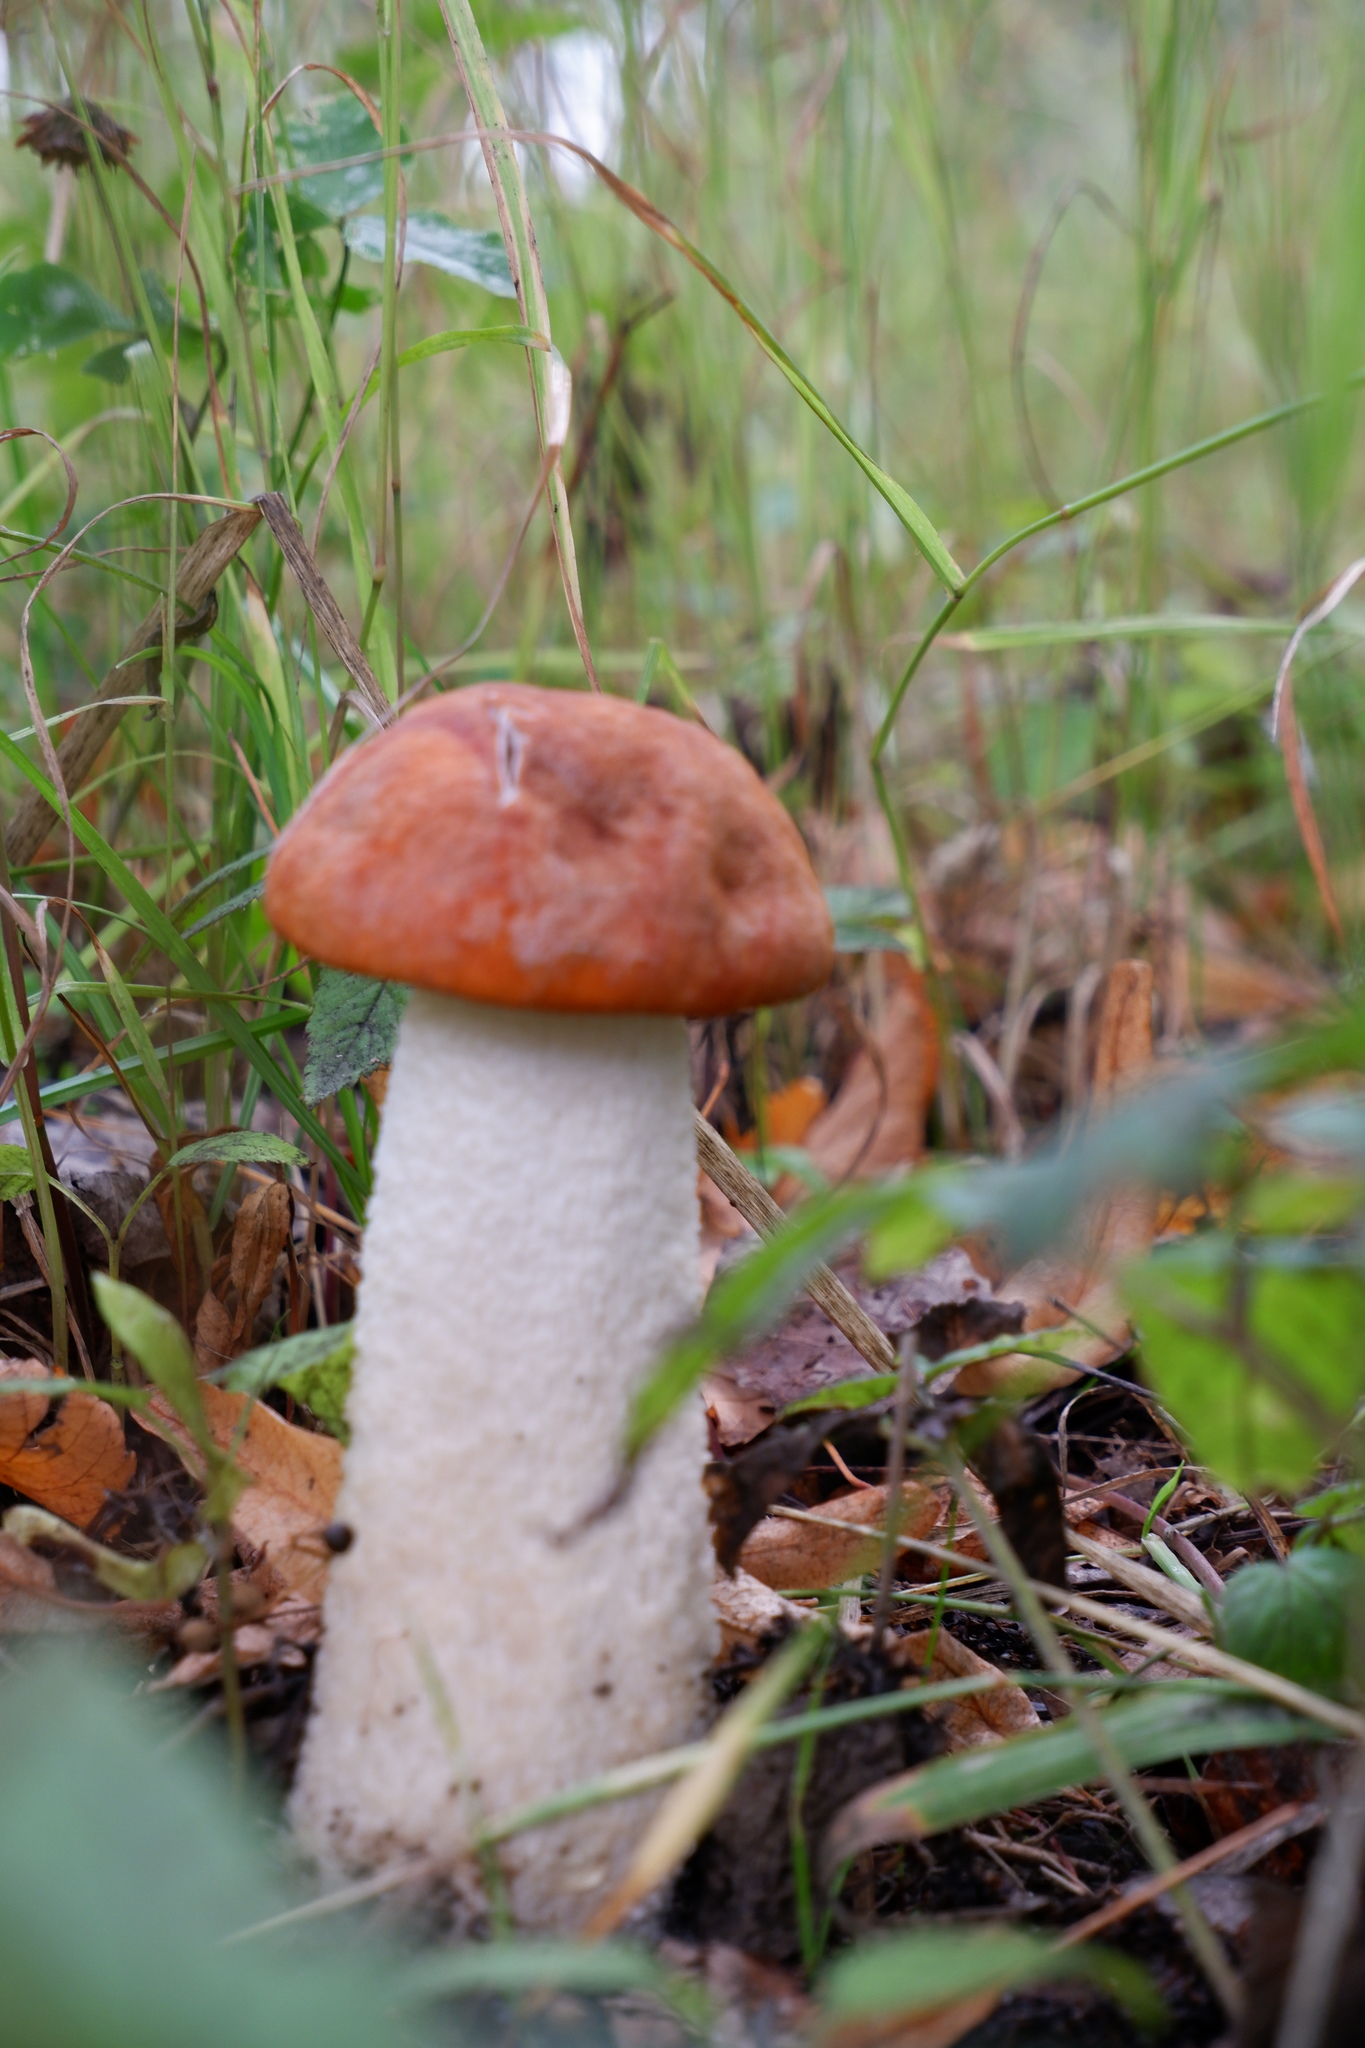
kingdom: Fungi
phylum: Basidiomycota
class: Agaricomycetes
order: Boletales
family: Boletaceae
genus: Leccinum
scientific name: Leccinum albostipitatum
